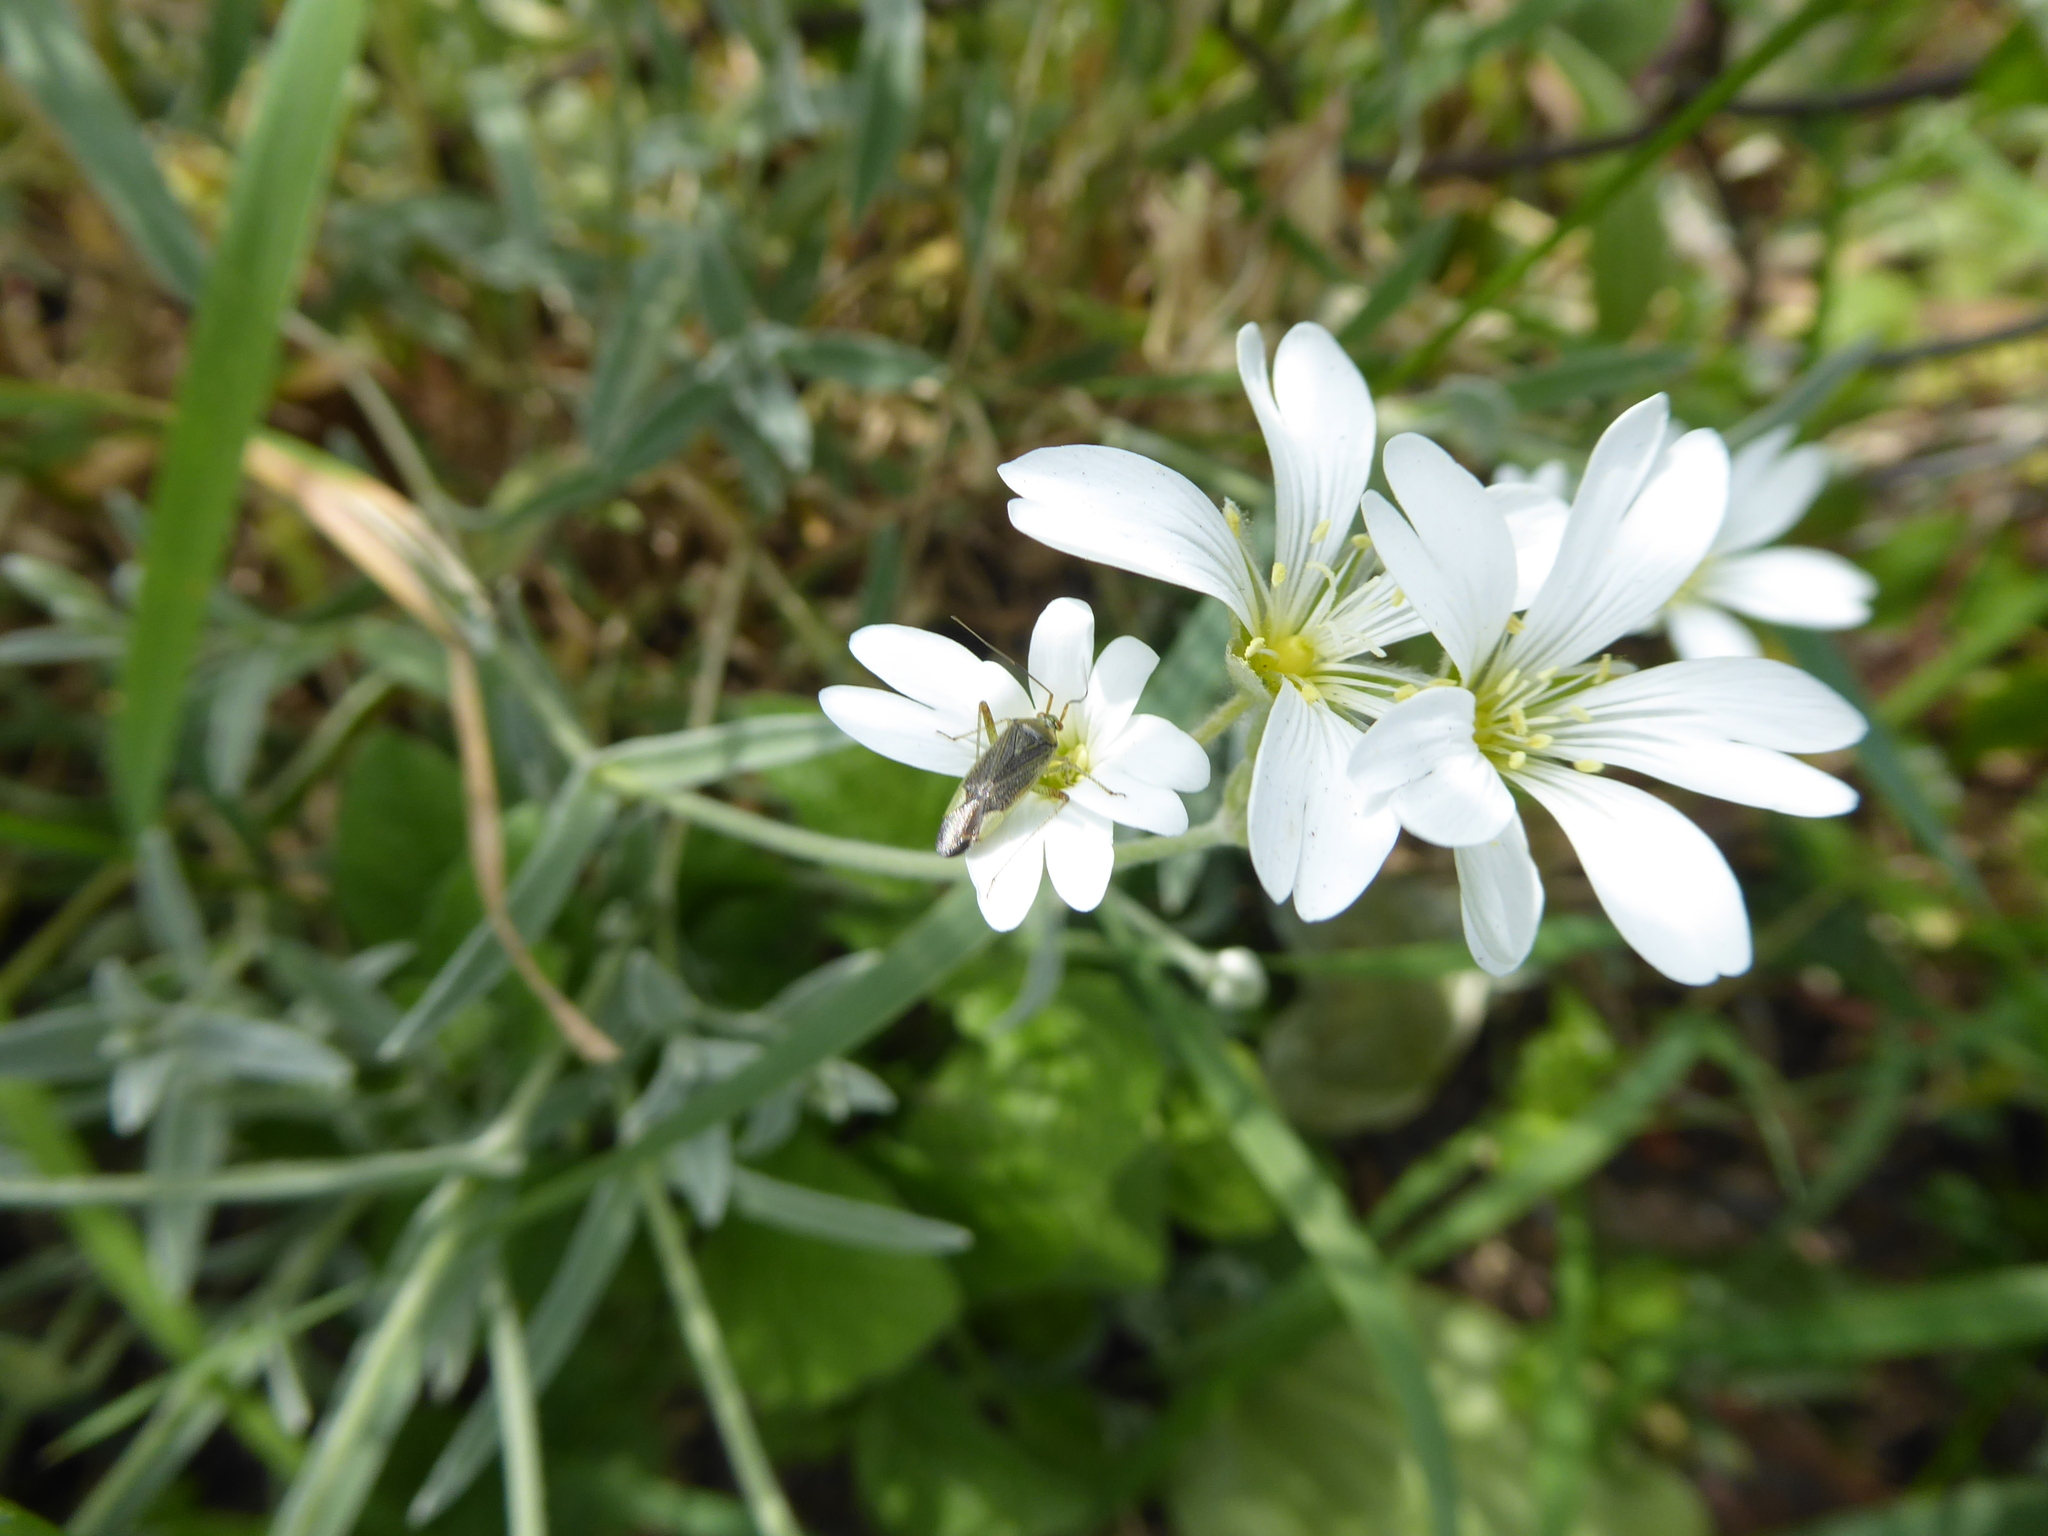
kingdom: Plantae
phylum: Tracheophyta
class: Magnoliopsida
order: Caryophyllales
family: Caryophyllaceae
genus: Cerastium
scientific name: Cerastium tomentosum
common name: Snow-in-summer
